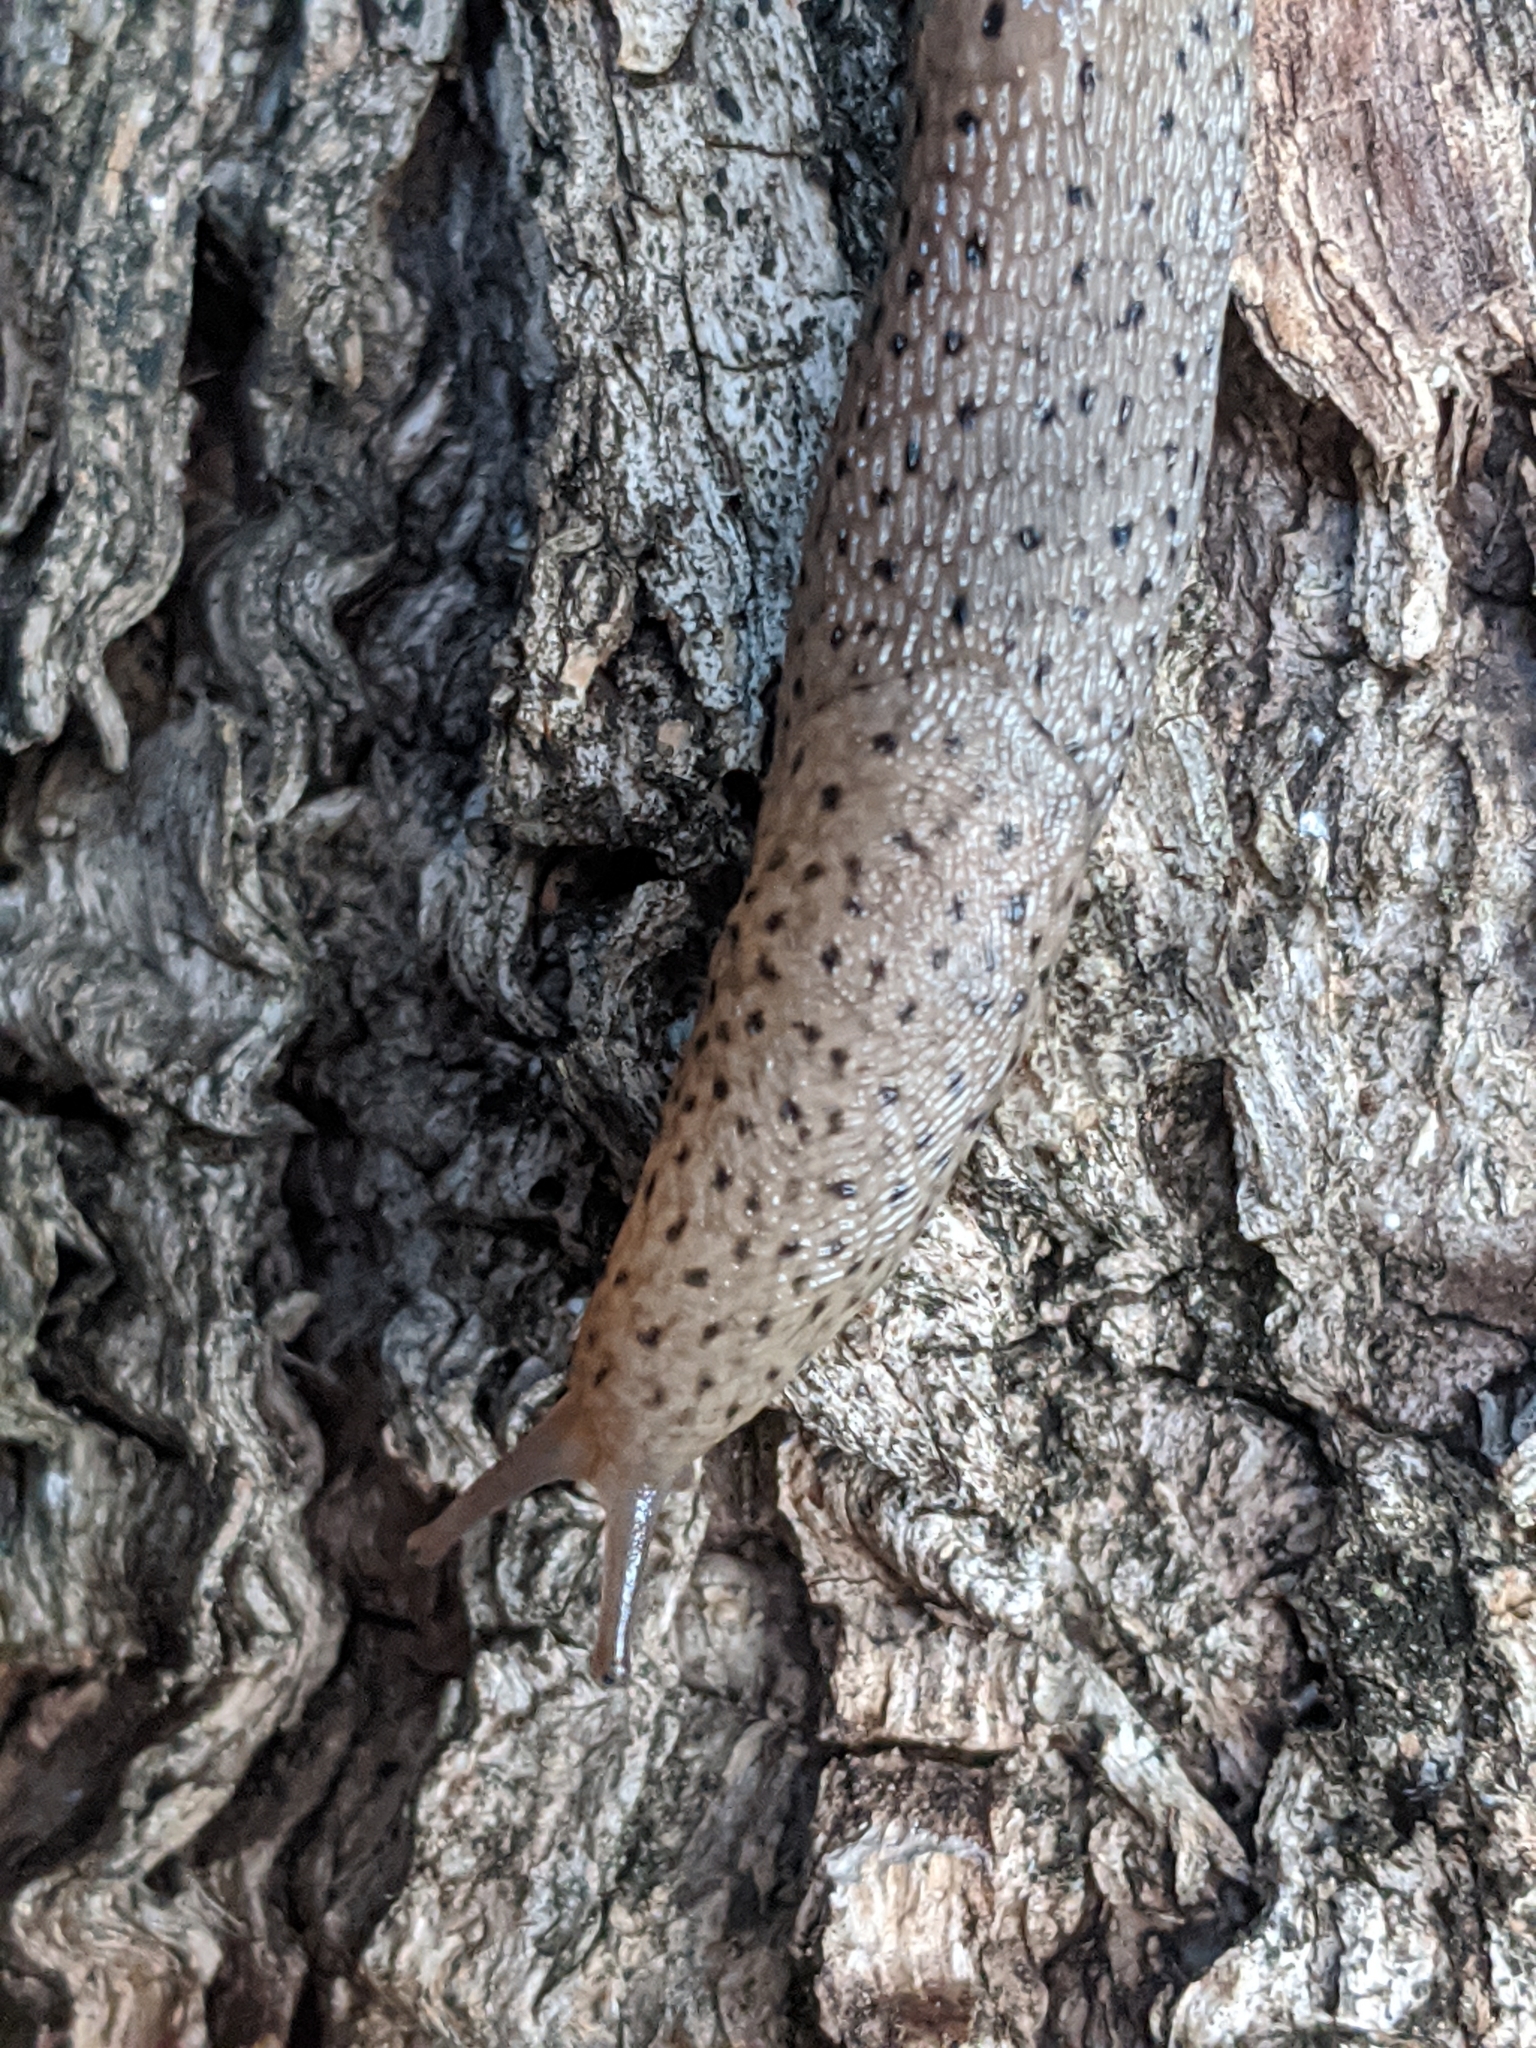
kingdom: Animalia
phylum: Mollusca
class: Gastropoda
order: Stylommatophora
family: Limacidae
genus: Limax
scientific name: Limax conemenosi
